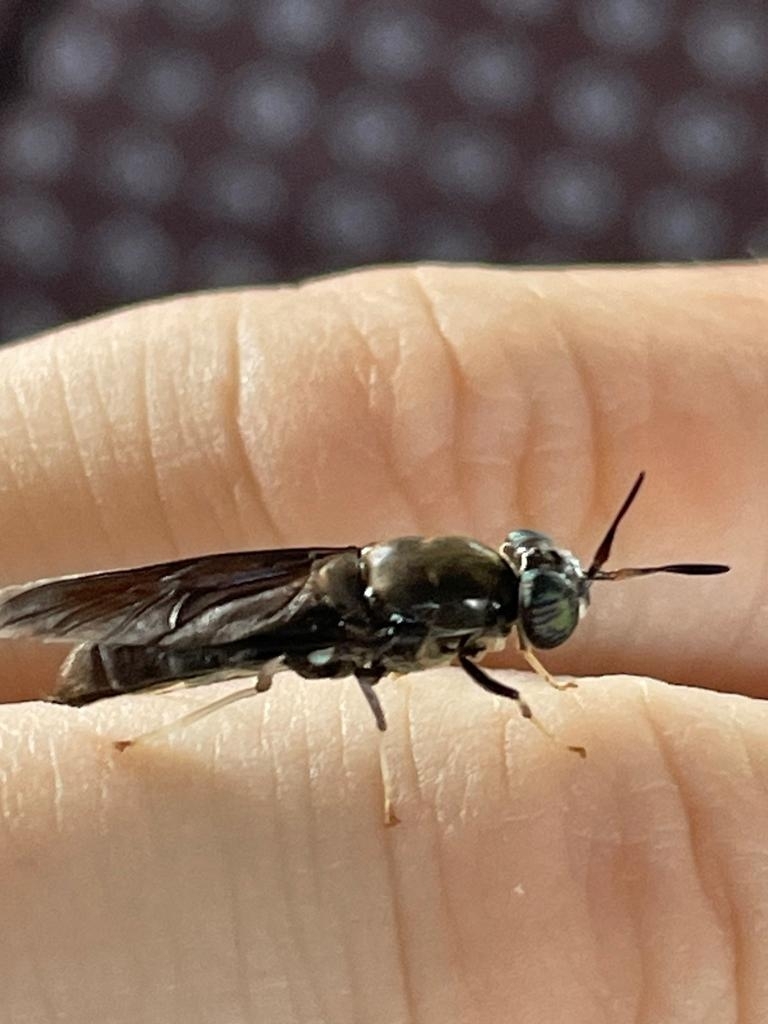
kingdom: Animalia
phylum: Arthropoda
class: Insecta
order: Diptera
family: Stratiomyidae
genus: Hermetia
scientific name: Hermetia illucens
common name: Black soldier fly
